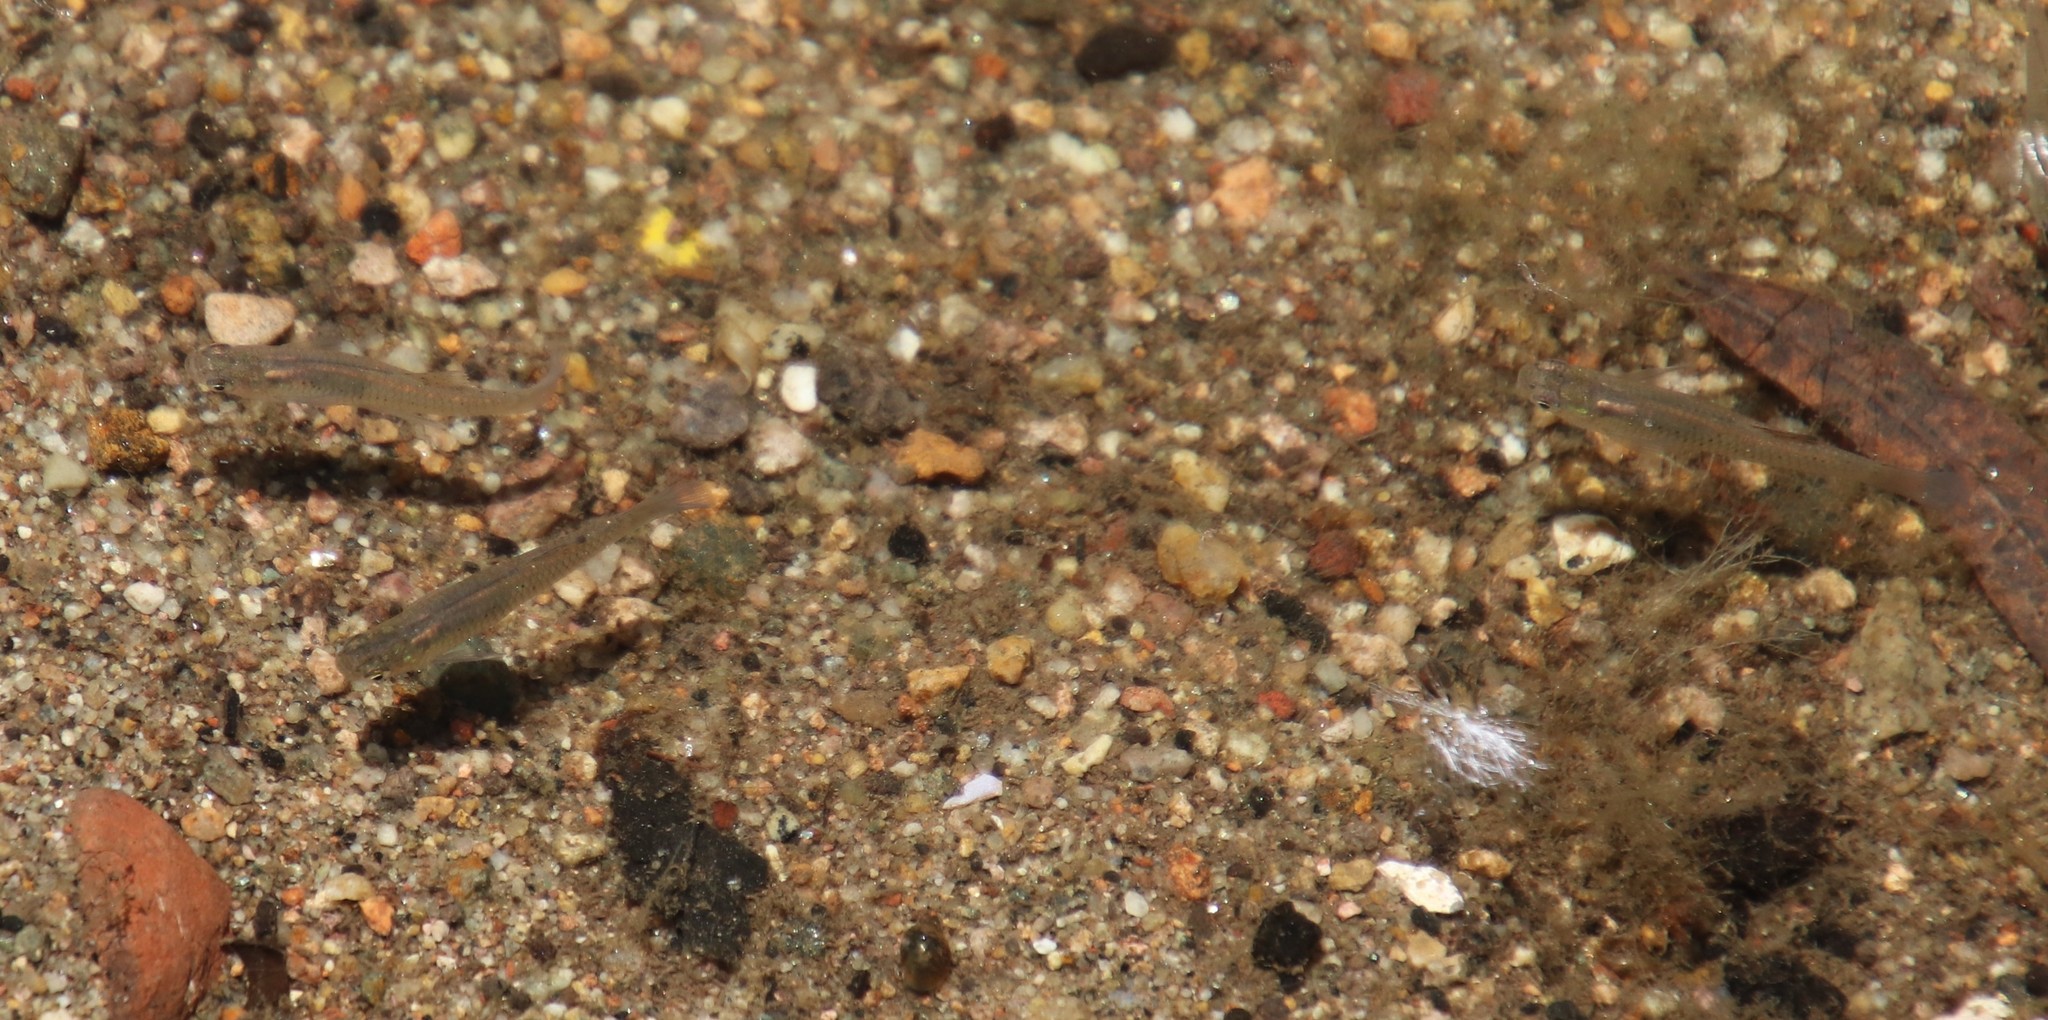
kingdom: Animalia
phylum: Chordata
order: Cyprinodontiformes
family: Poeciliidae
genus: Gambusia
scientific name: Gambusia affinis
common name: Mosquitofish
